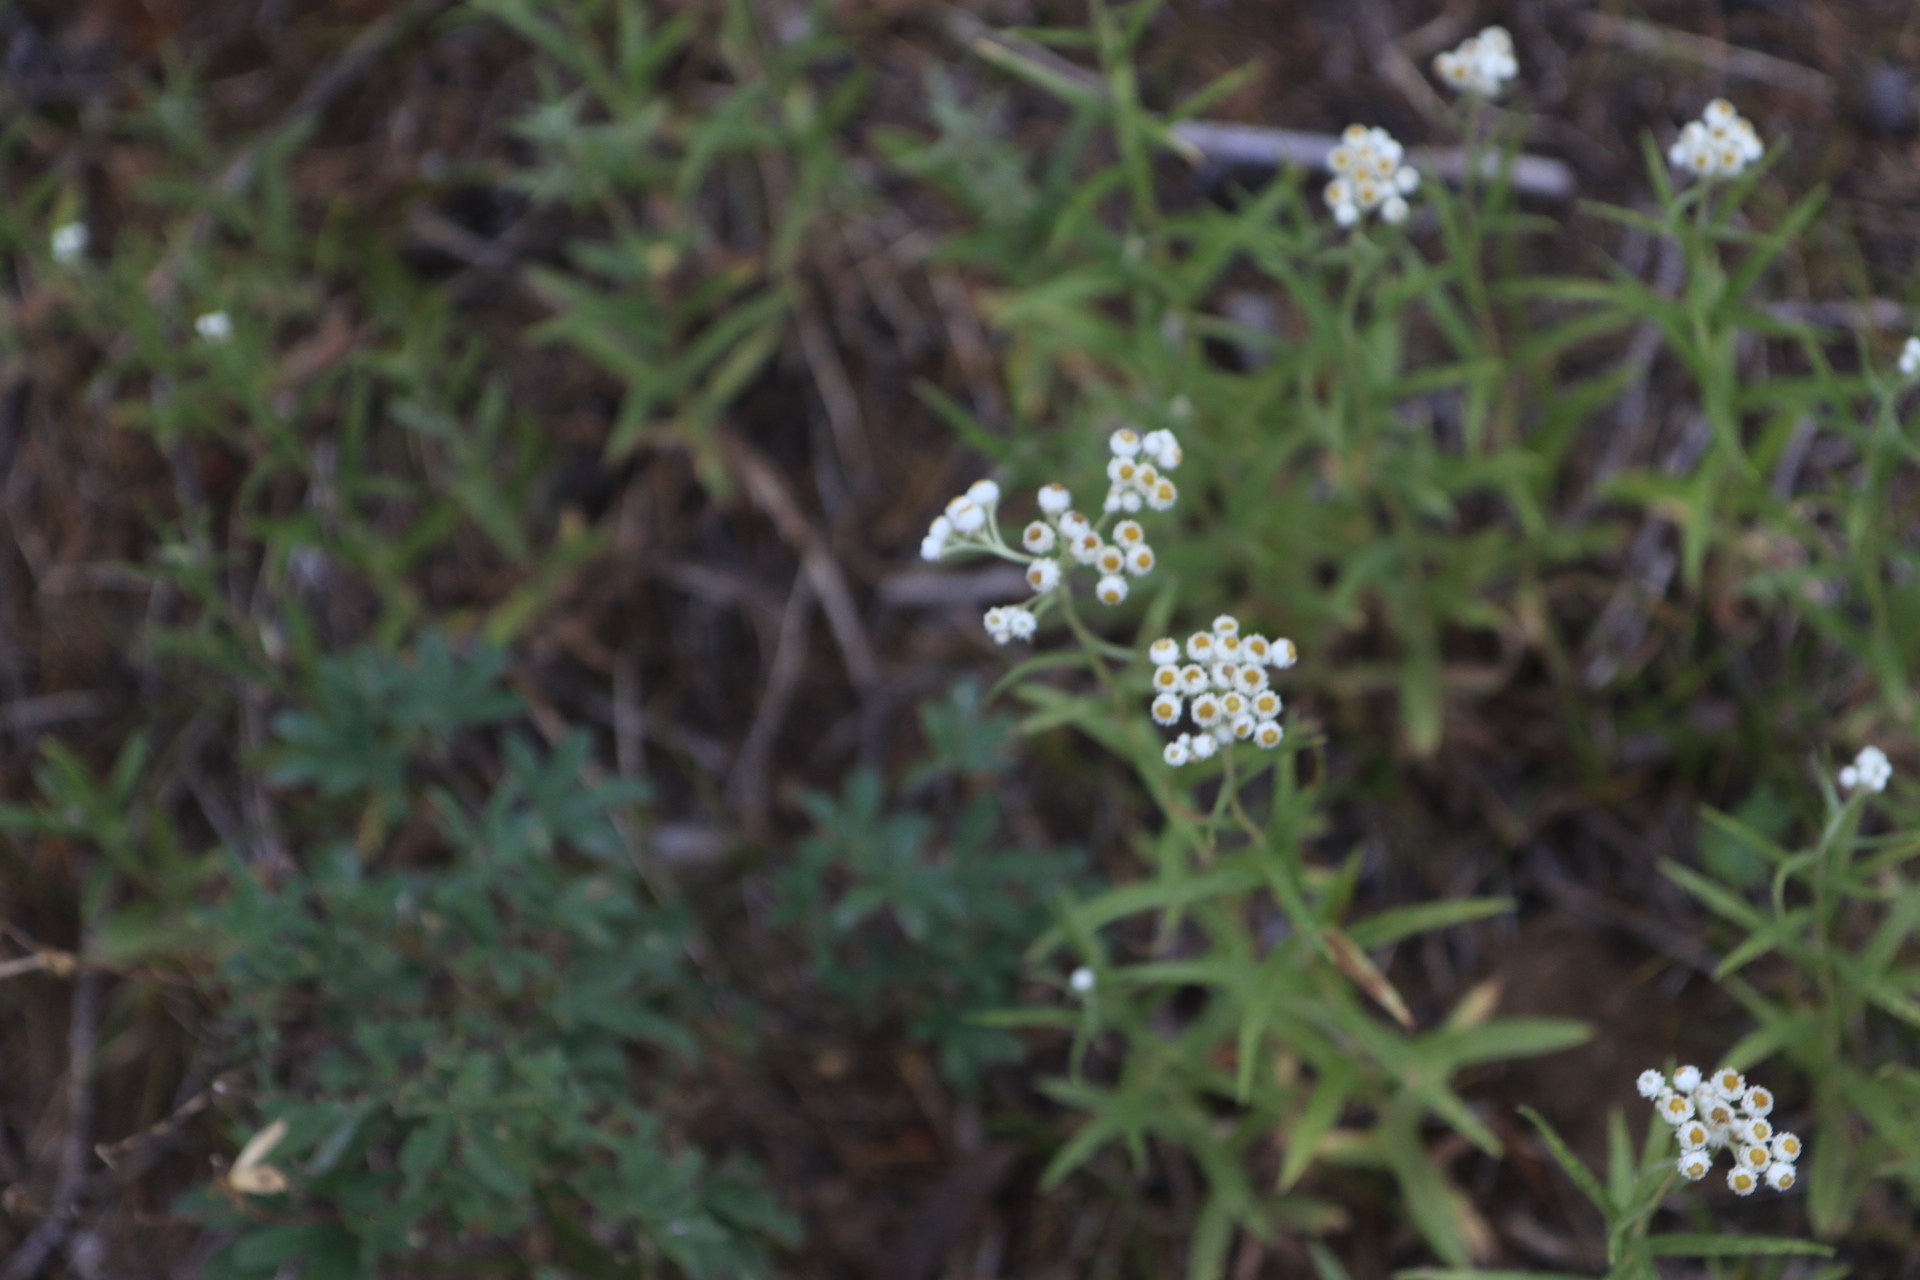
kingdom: Plantae
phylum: Tracheophyta
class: Magnoliopsida
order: Asterales
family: Asteraceae
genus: Anaphalis
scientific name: Anaphalis margaritacea
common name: Pearly everlasting
